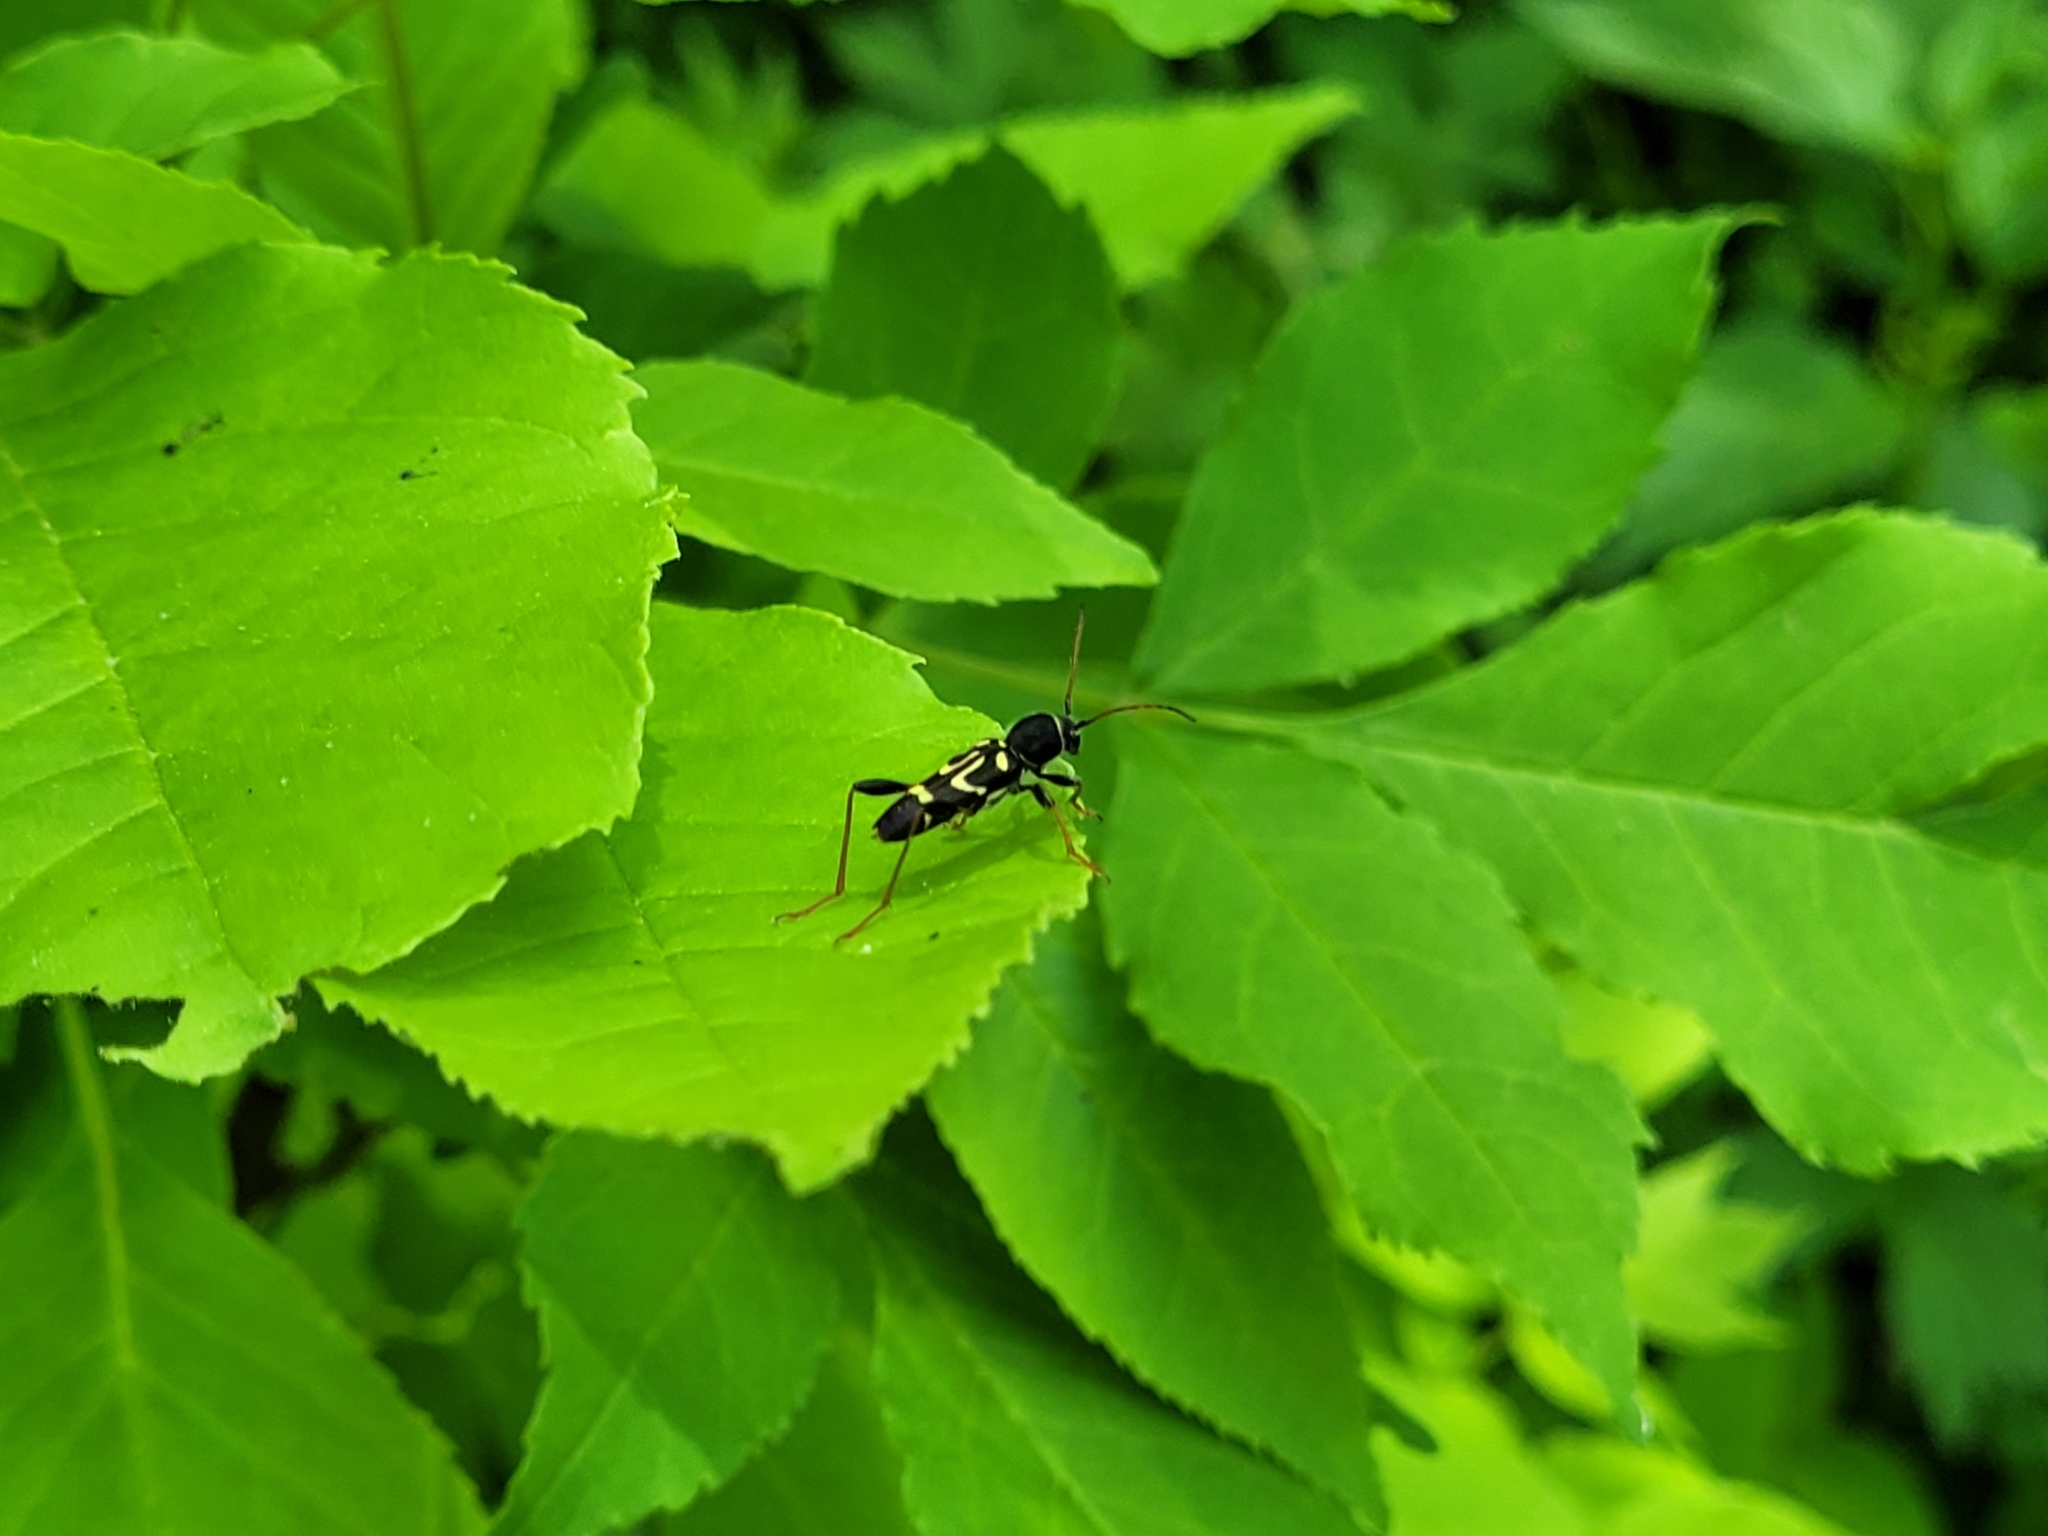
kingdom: Animalia
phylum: Arthropoda
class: Insecta
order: Coleoptera
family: Cerambycidae
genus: Clytus
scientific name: Clytus ruricola
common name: Round-necked longhorn beetle
